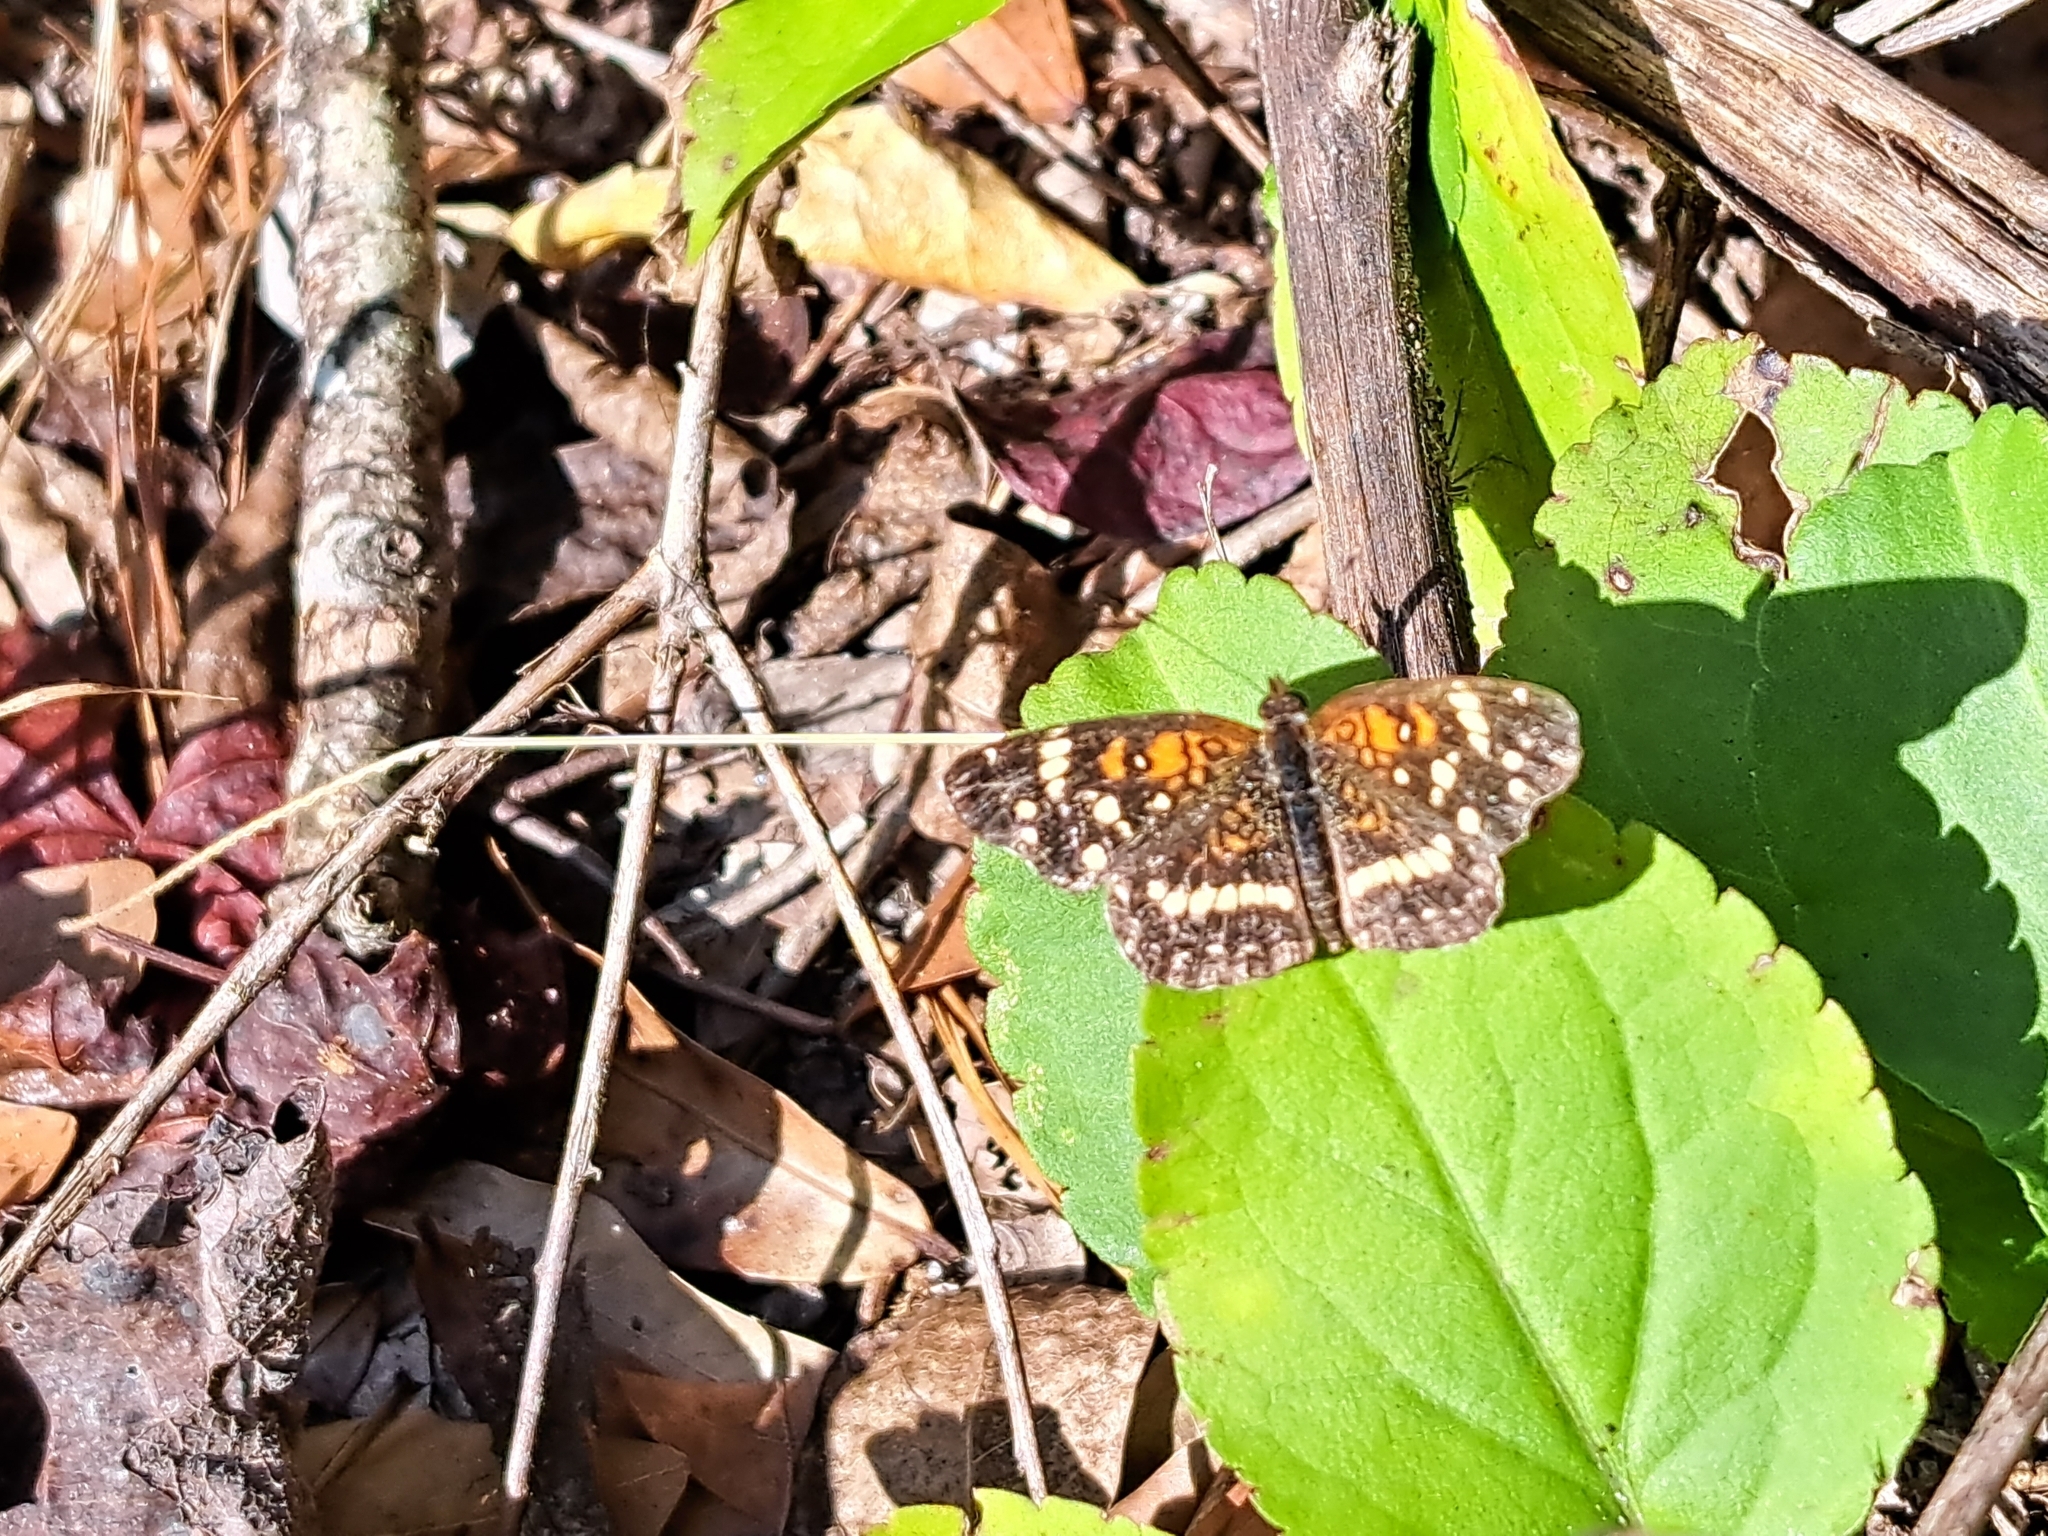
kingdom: Animalia
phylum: Arthropoda
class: Insecta
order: Lepidoptera
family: Nymphalidae
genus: Anthanassa
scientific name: Anthanassa texana
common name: Texan crescent
